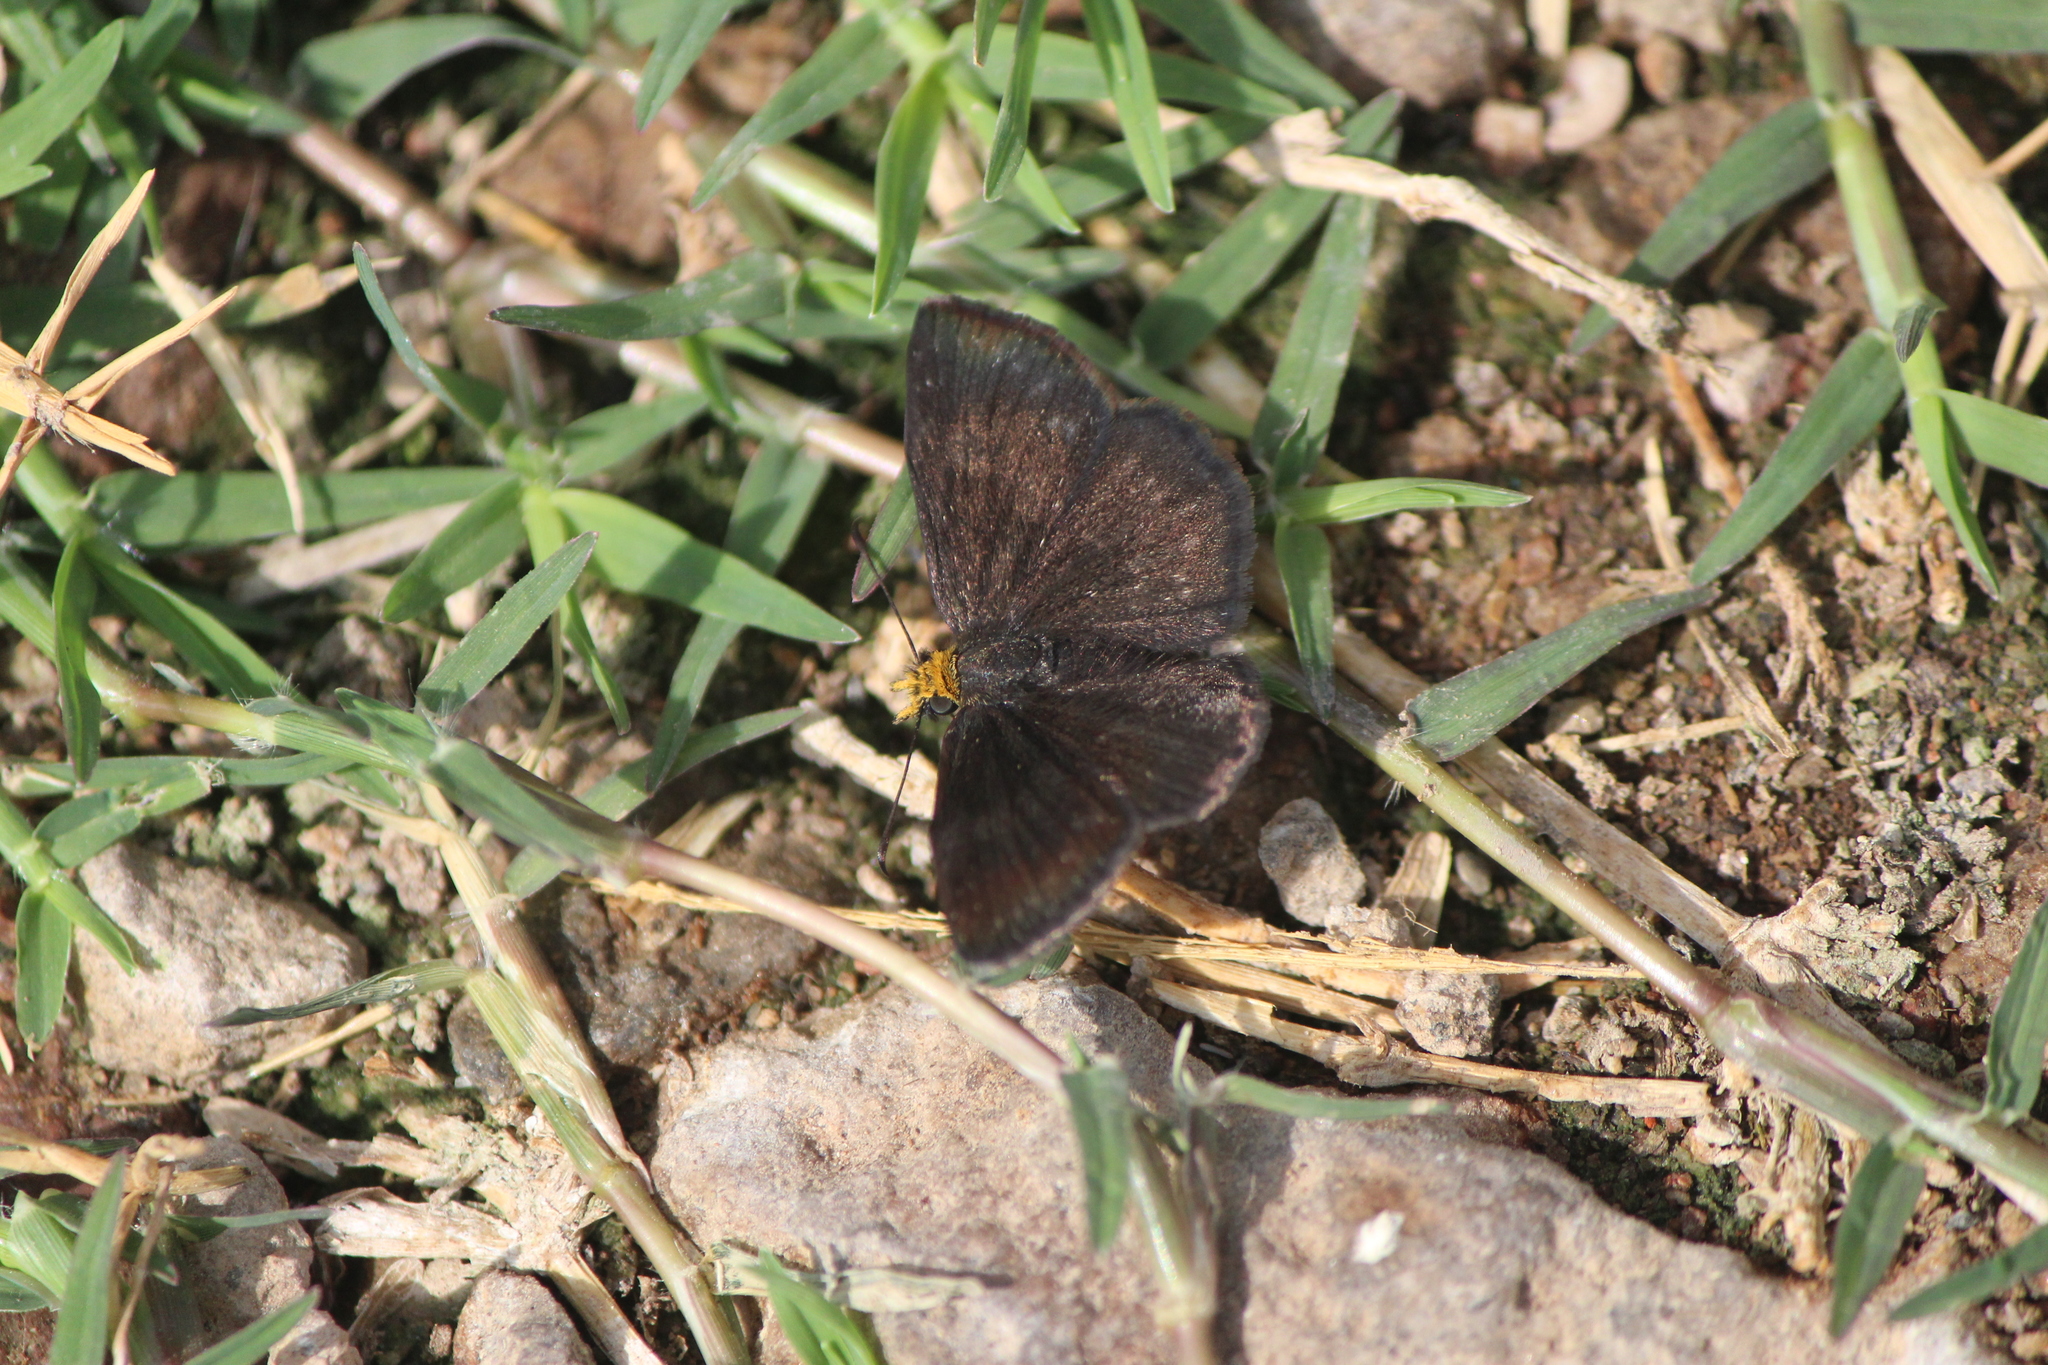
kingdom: Animalia
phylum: Arthropoda
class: Insecta
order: Lepidoptera
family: Hesperiidae
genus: Staphylus
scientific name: Staphylus ceos
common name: Golden-headed scallopwing
